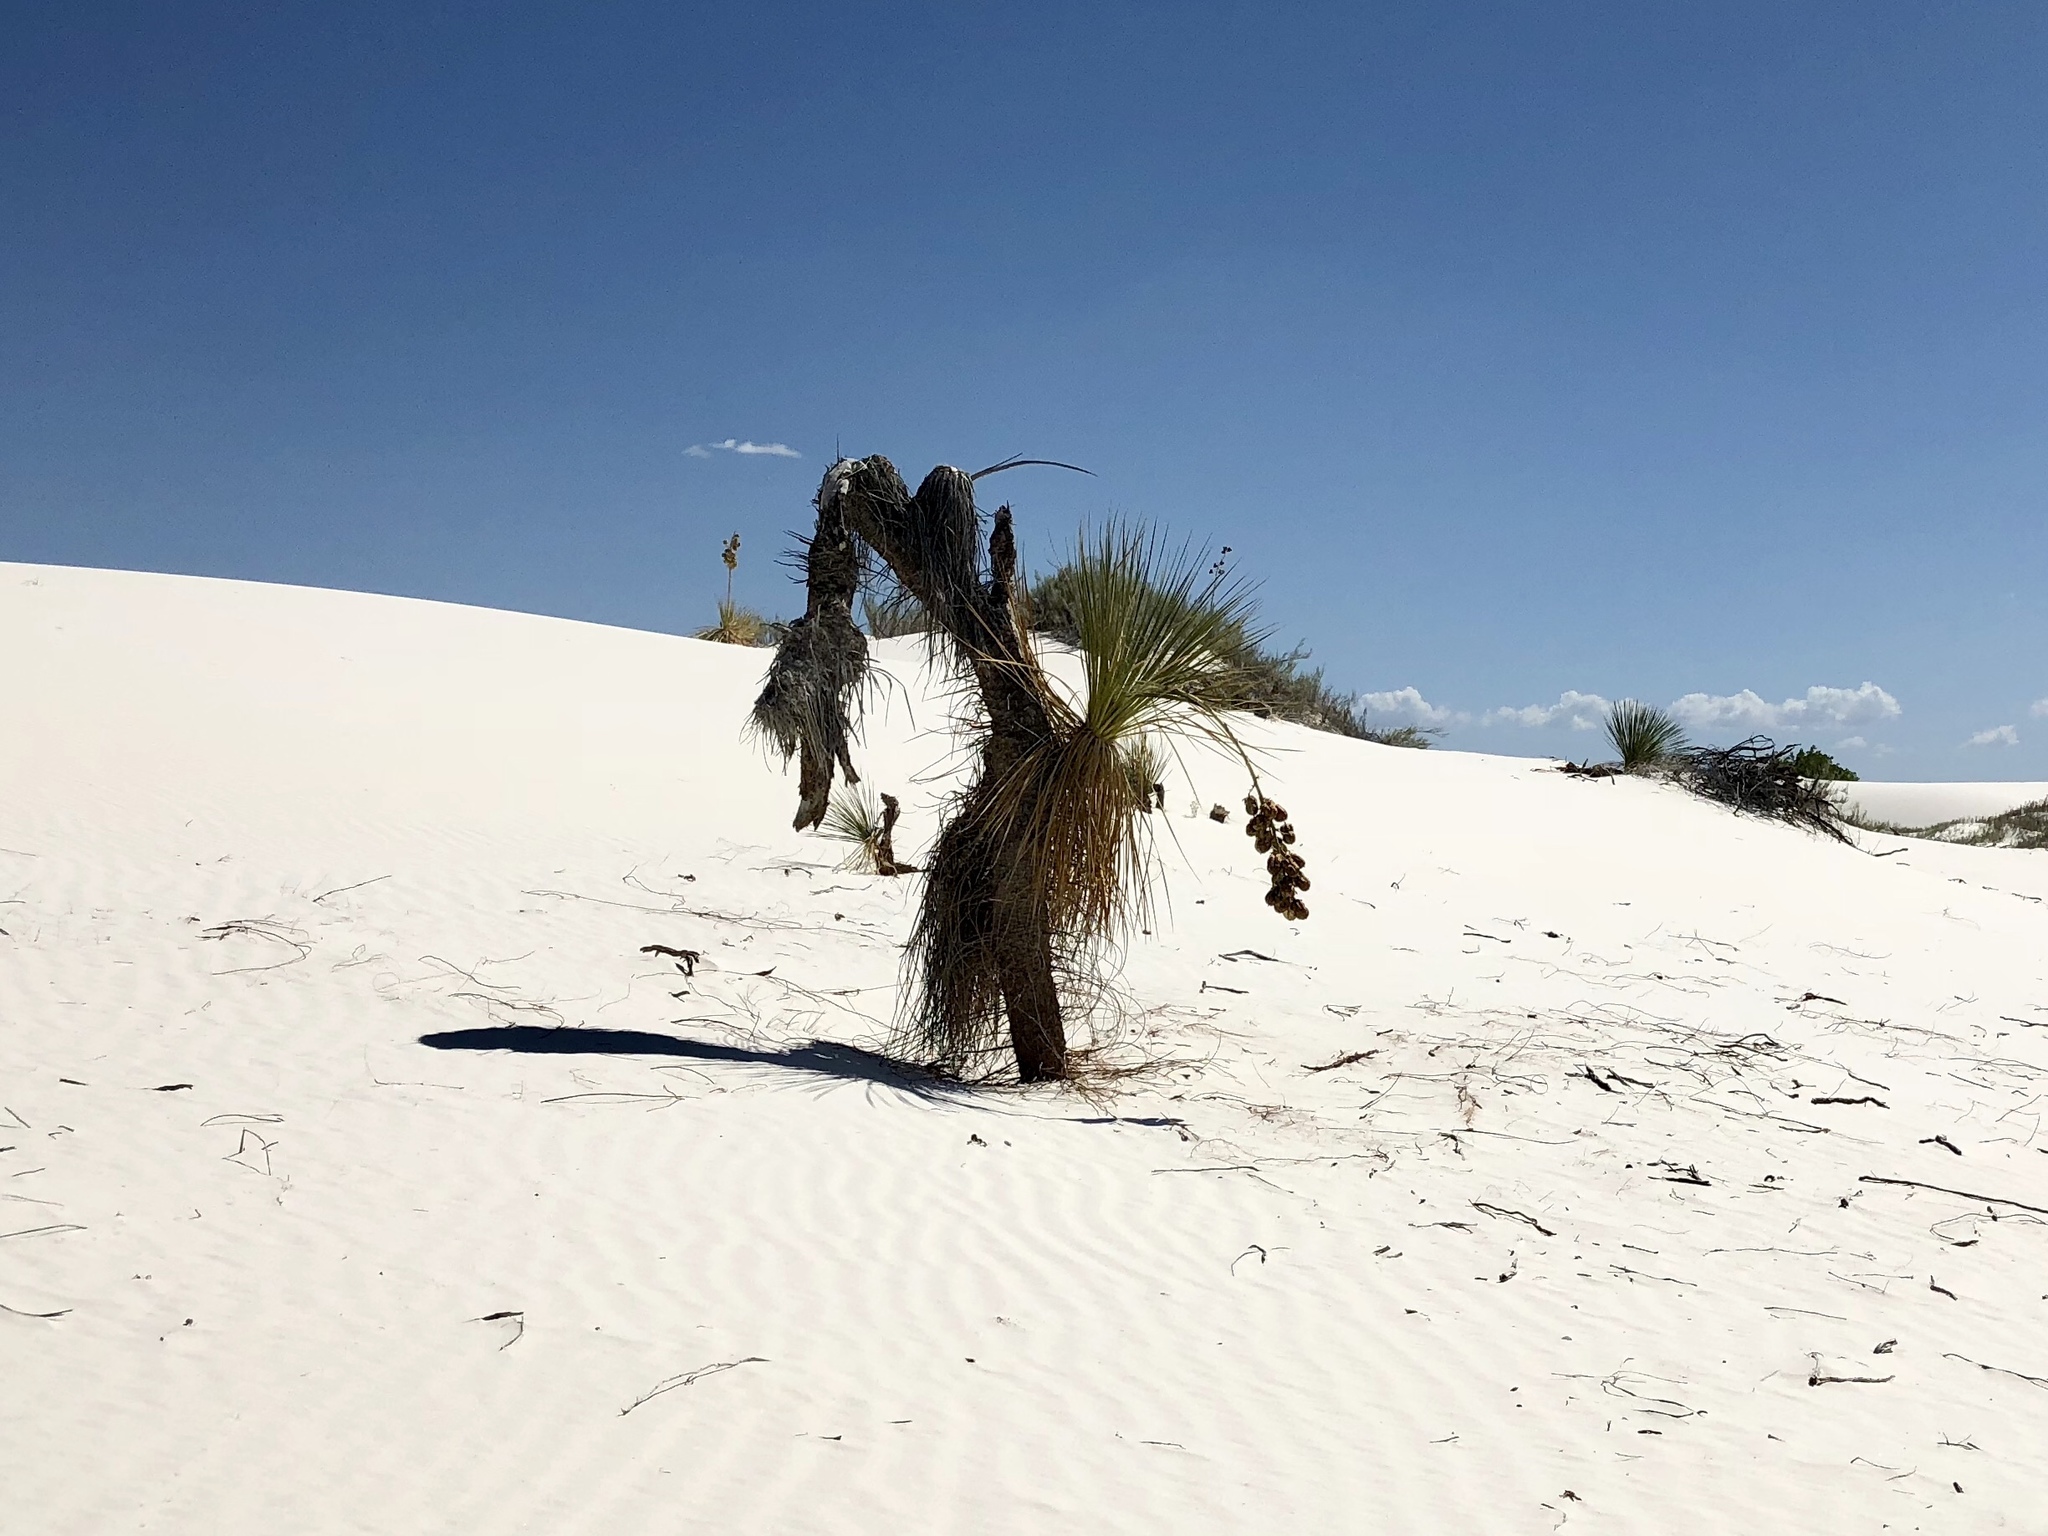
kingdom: Plantae
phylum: Tracheophyta
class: Liliopsida
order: Asparagales
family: Asparagaceae
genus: Yucca
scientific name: Yucca elata
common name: Palmella
